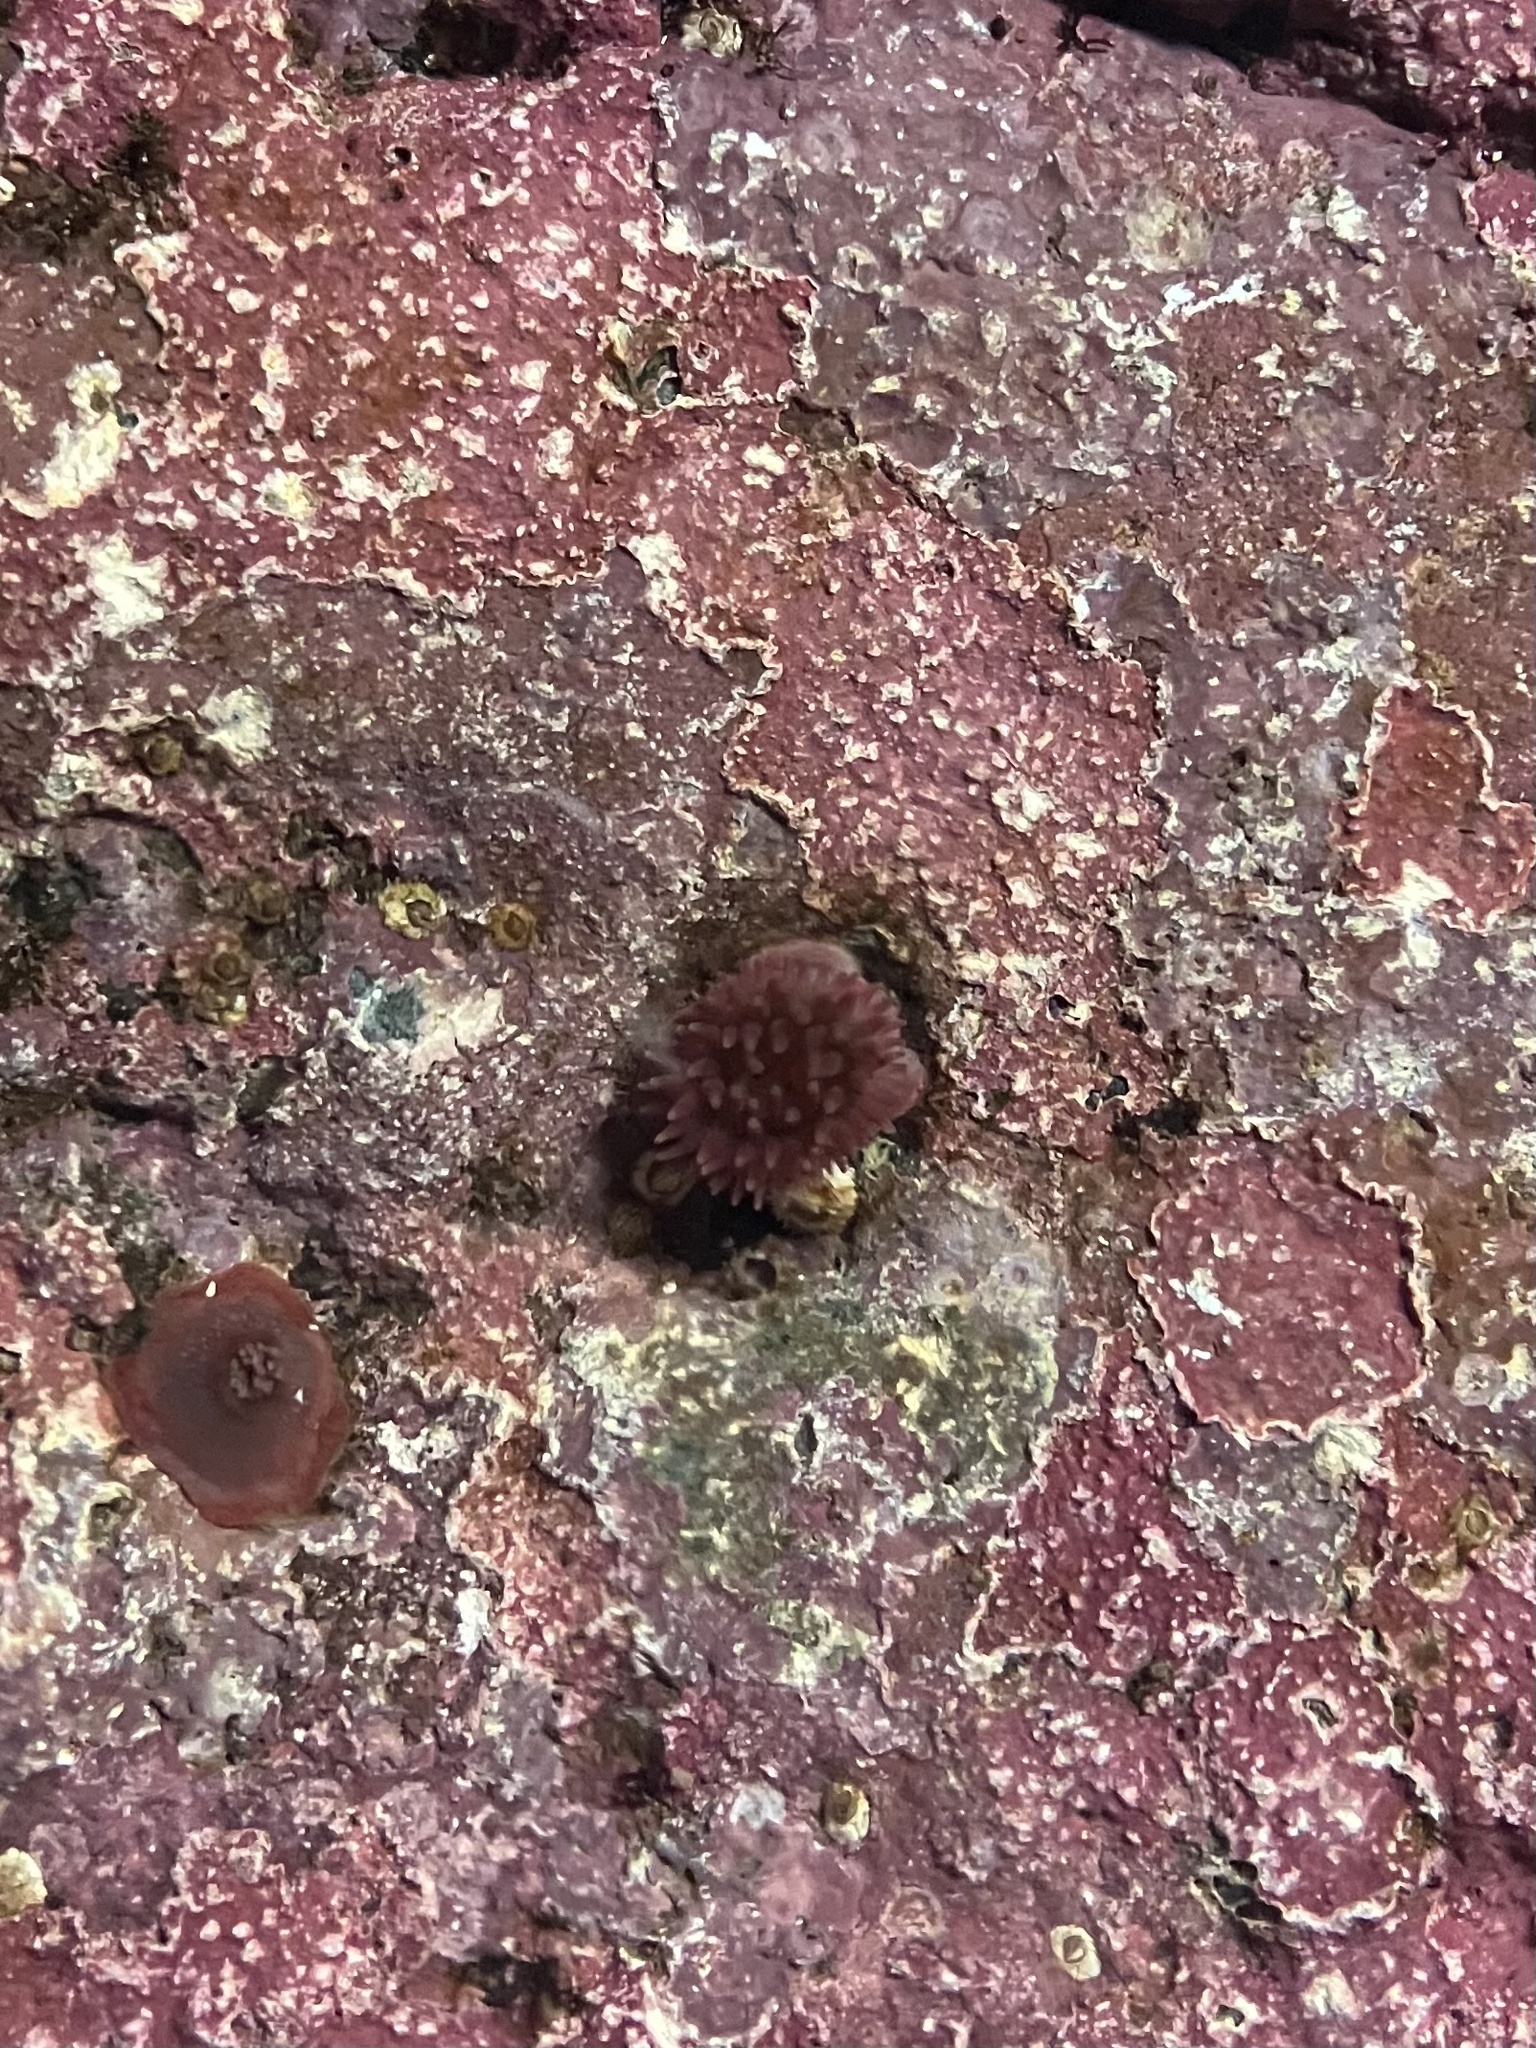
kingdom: Animalia
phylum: Cnidaria
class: Anthozoa
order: Actiniaria
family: Actiniidae
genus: Urticina
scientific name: Urticina crassicornis
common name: Mottled anemone
